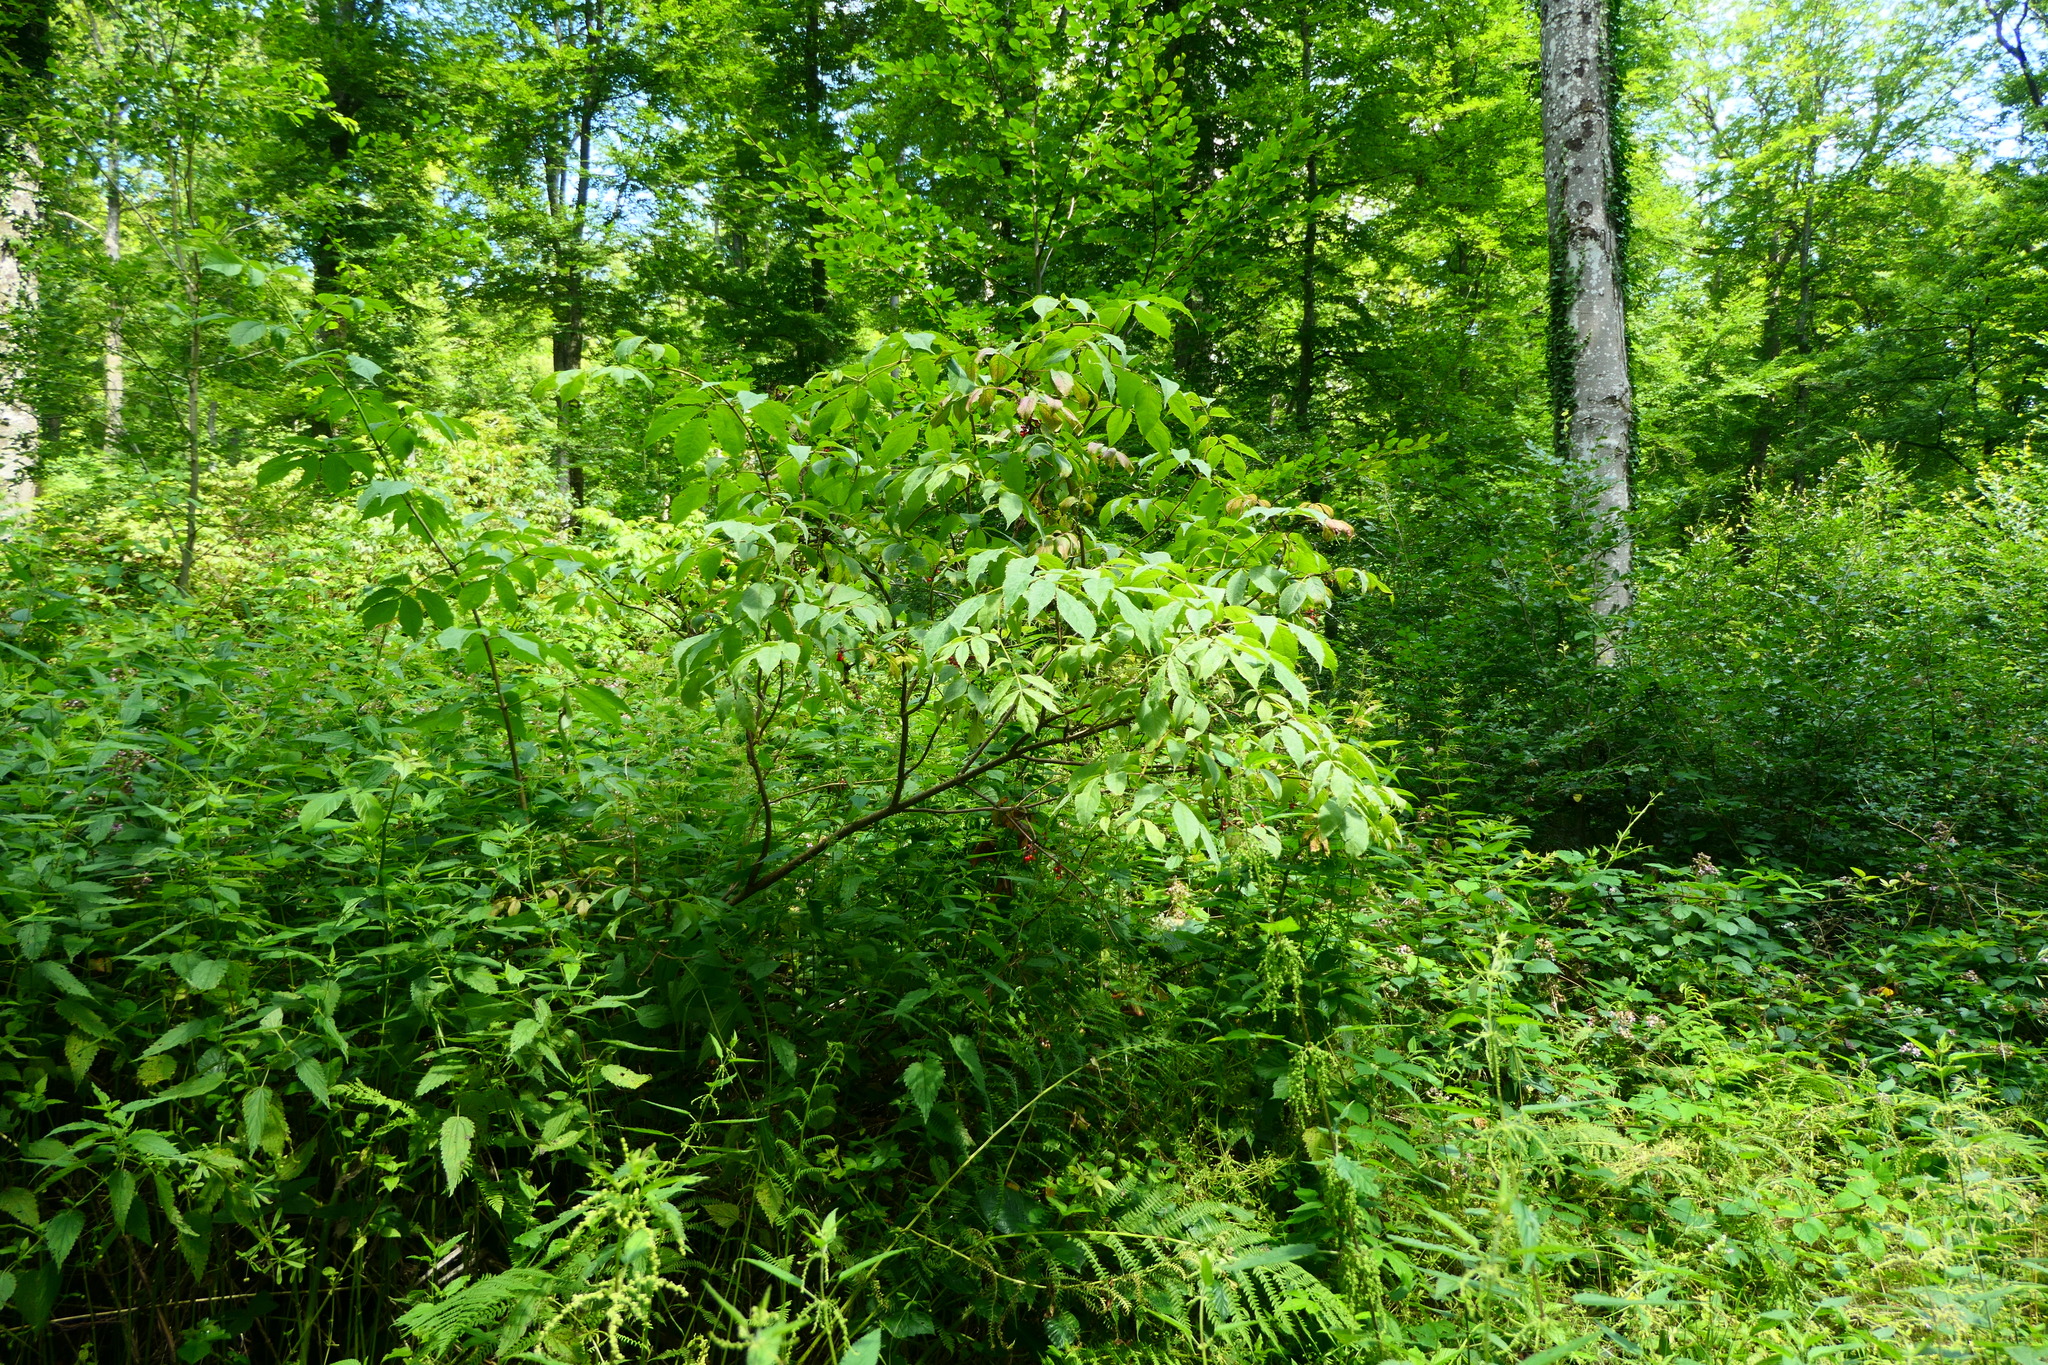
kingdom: Plantae
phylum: Tracheophyta
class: Magnoliopsida
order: Dipsacales
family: Viburnaceae
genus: Sambucus
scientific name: Sambucus racemosa
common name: Red-berried elder
